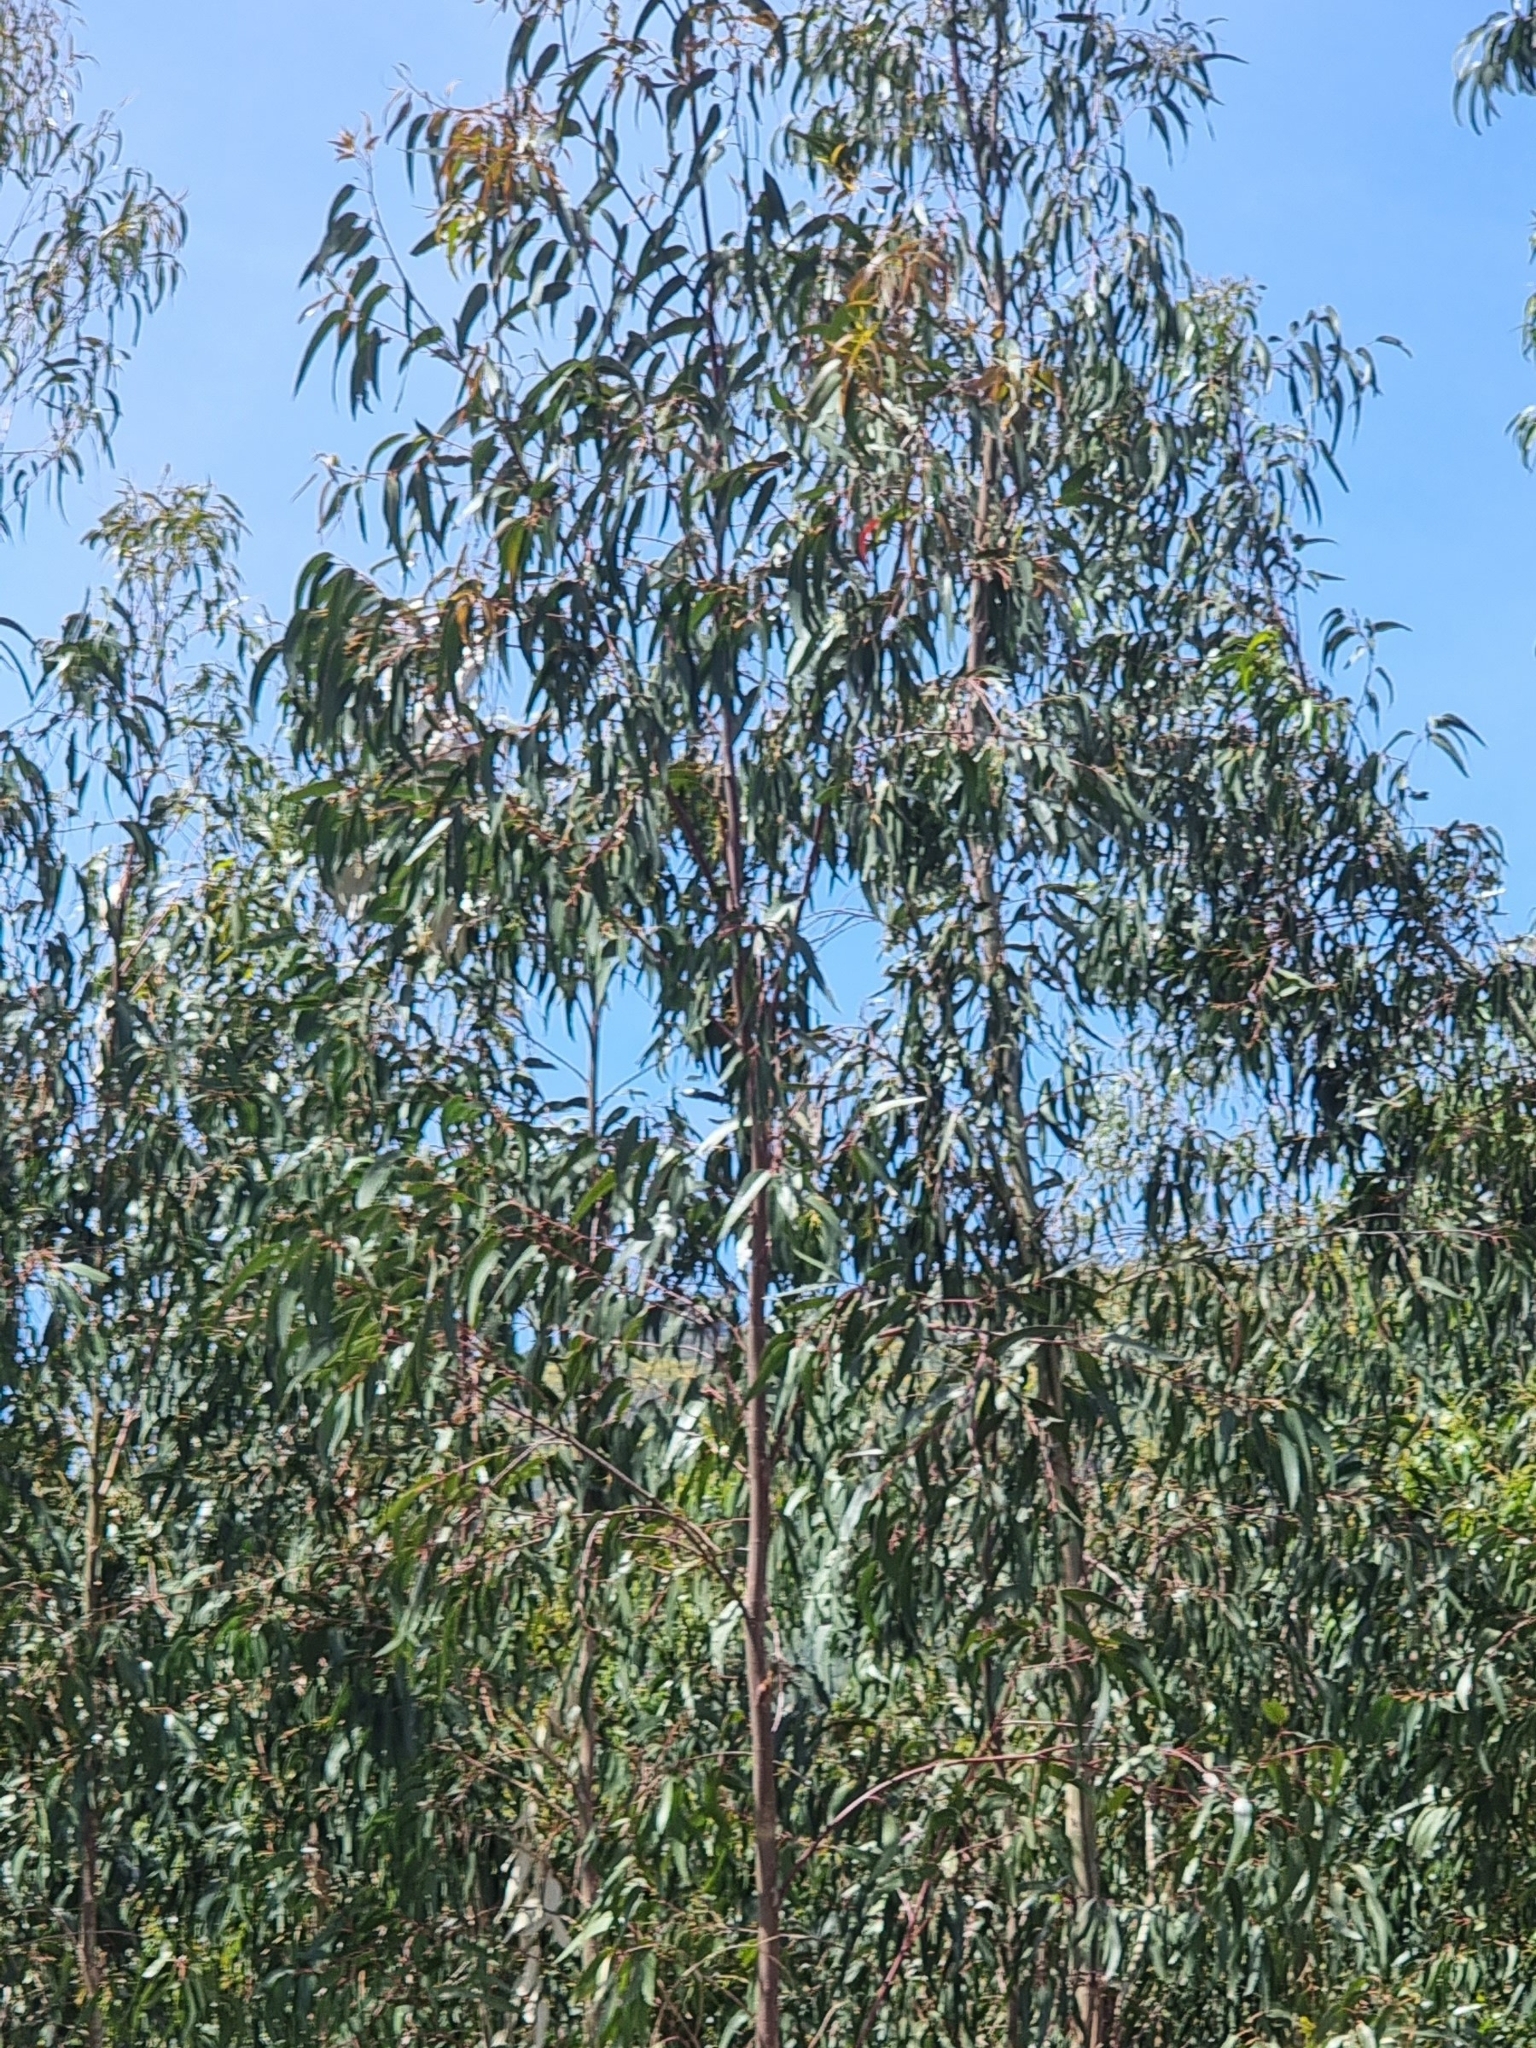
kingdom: Plantae
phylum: Tracheophyta
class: Magnoliopsida
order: Myrtales
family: Myrtaceae
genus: Eucalyptus
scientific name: Eucalyptus globulus
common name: Southern blue-gum
